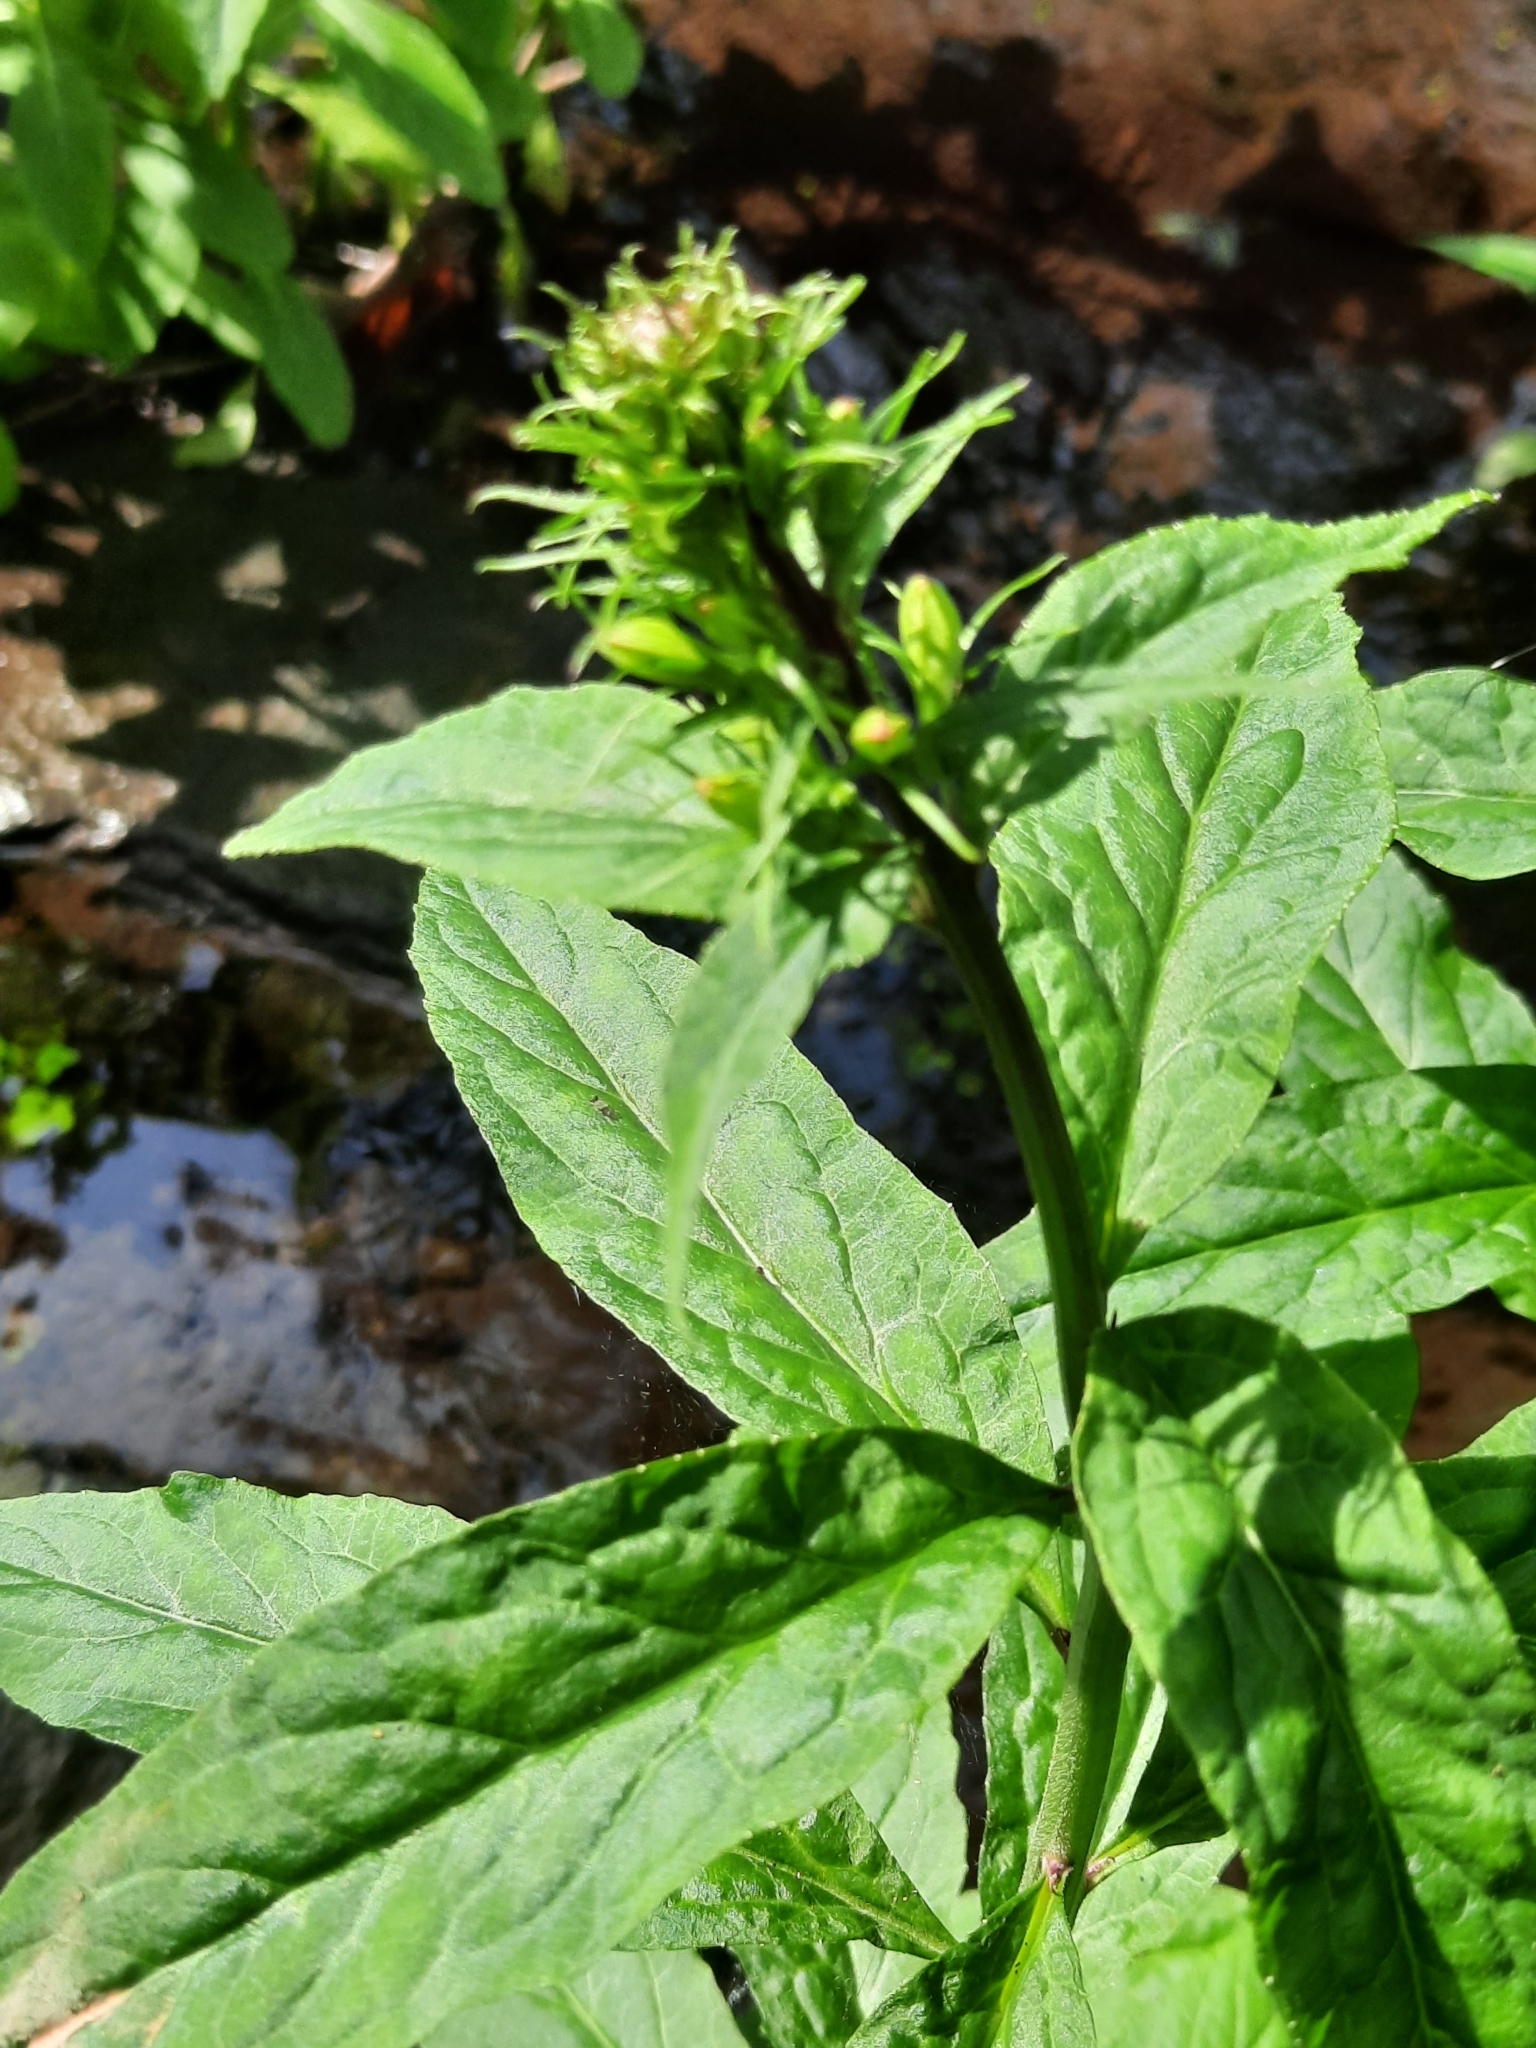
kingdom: Plantae
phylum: Tracheophyta
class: Magnoliopsida
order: Asterales
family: Campanulaceae
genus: Lobelia
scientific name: Lobelia cardinalis
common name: Cardinal flower
